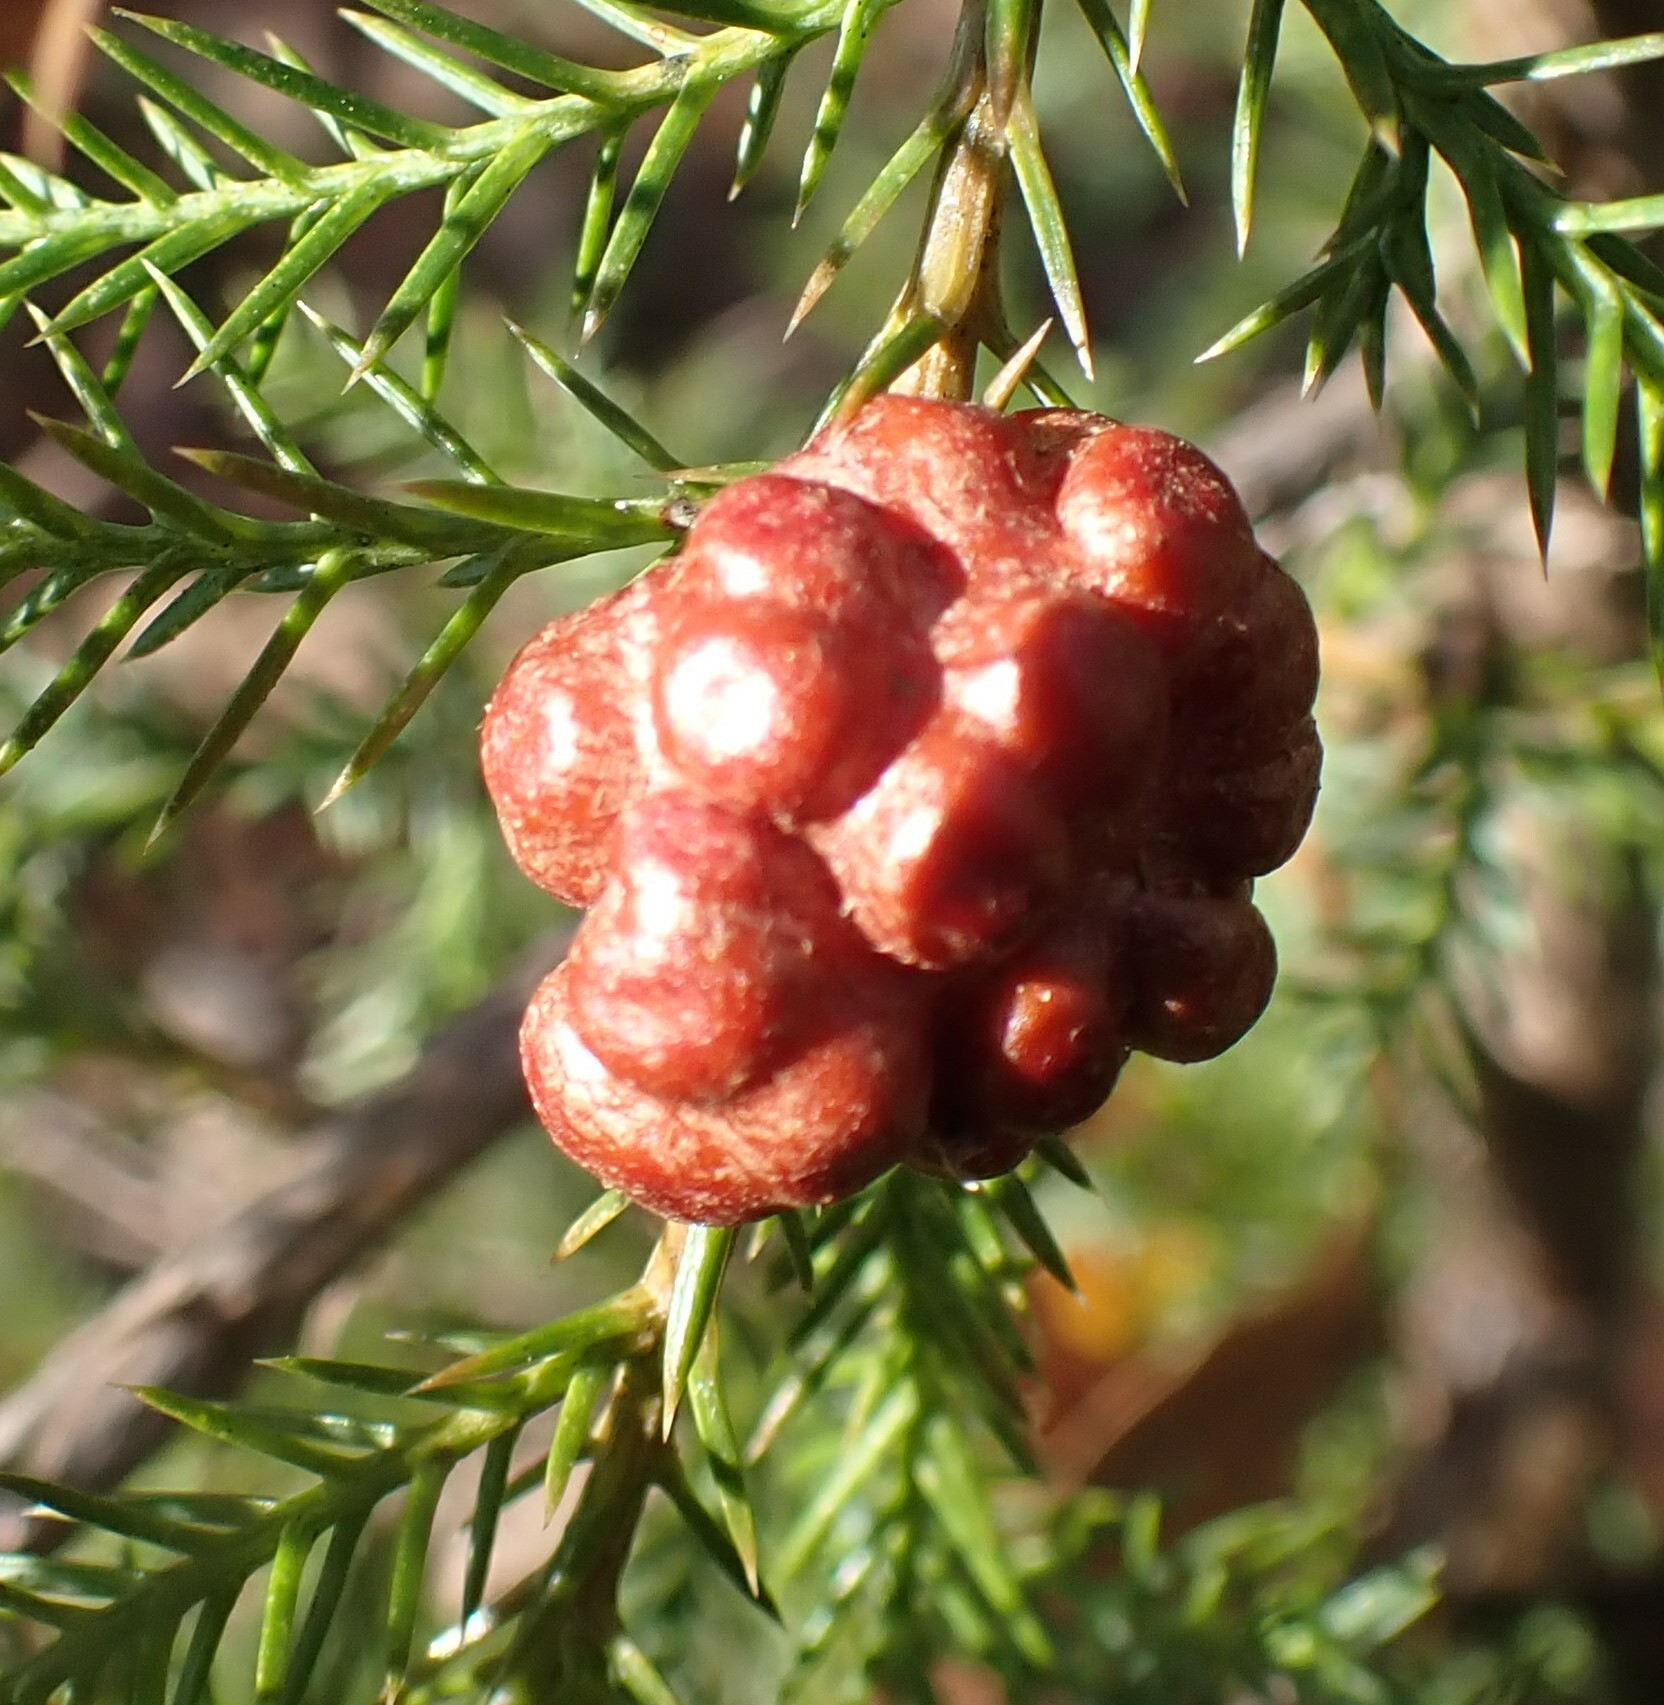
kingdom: Fungi
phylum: Basidiomycota
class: Pucciniomycetes
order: Pucciniales
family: Gymnosporangiaceae
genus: Gymnosporangium
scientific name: Gymnosporangium juniperi-virginianae
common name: Juniper-apple rust
